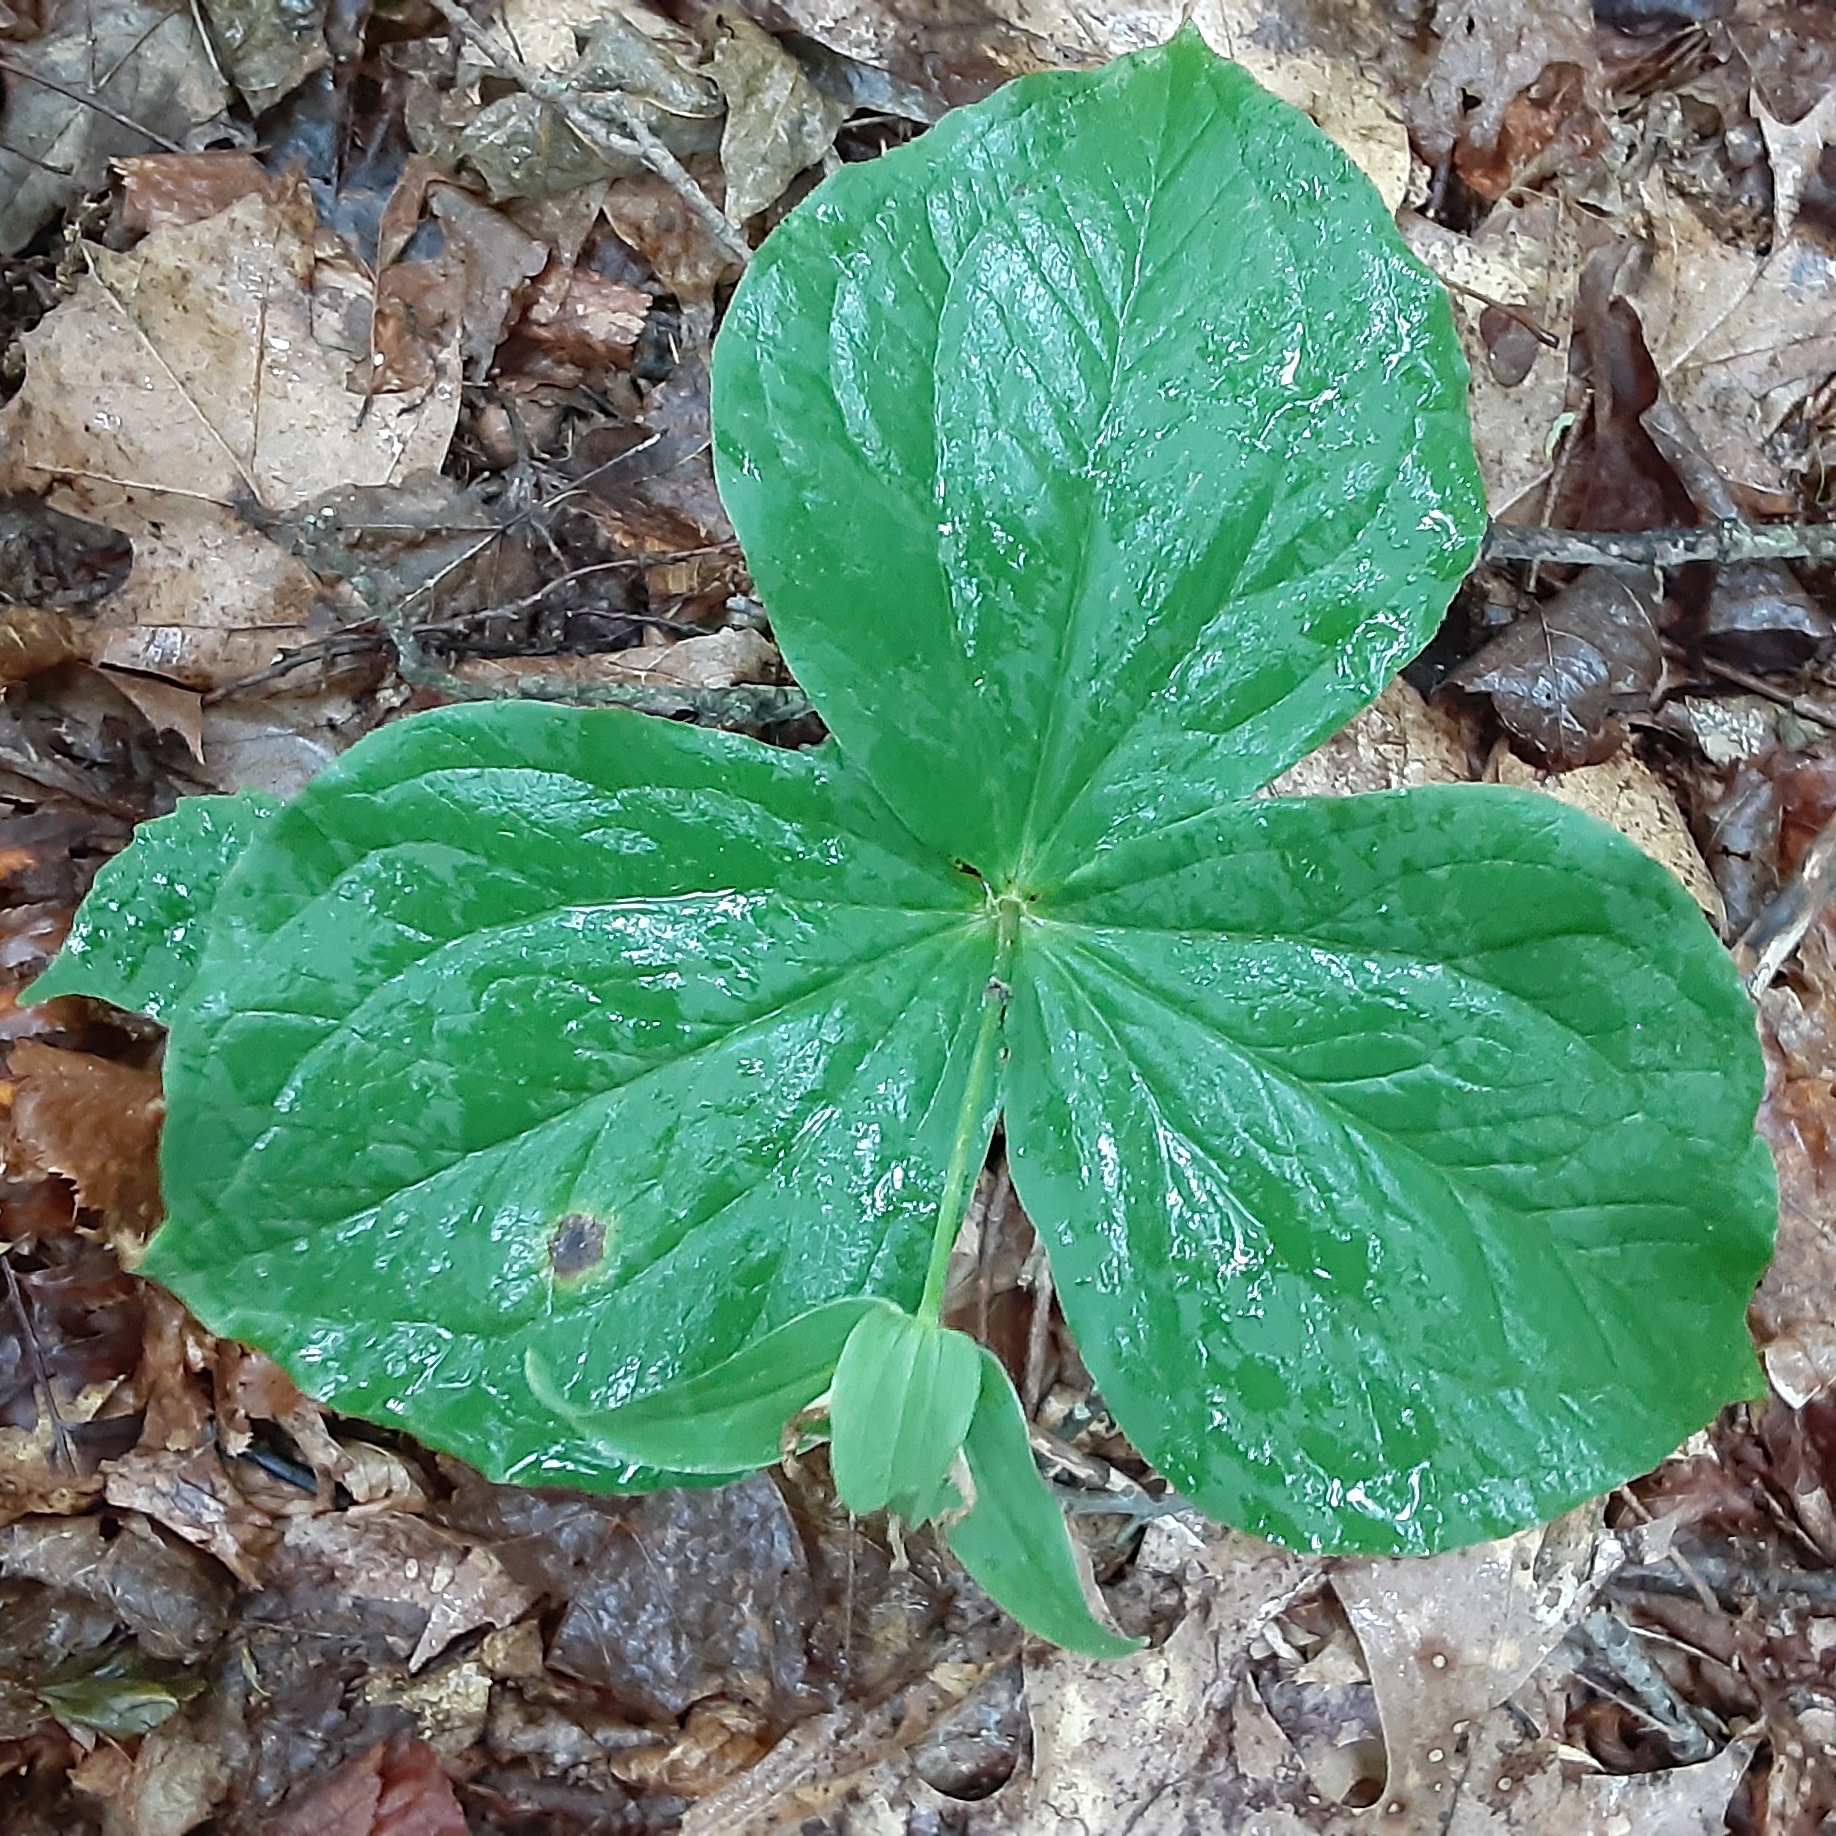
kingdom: Plantae
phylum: Tracheophyta
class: Liliopsida
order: Liliales
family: Melanthiaceae
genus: Trillium
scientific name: Trillium grandiflorum
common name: Great white trillium
